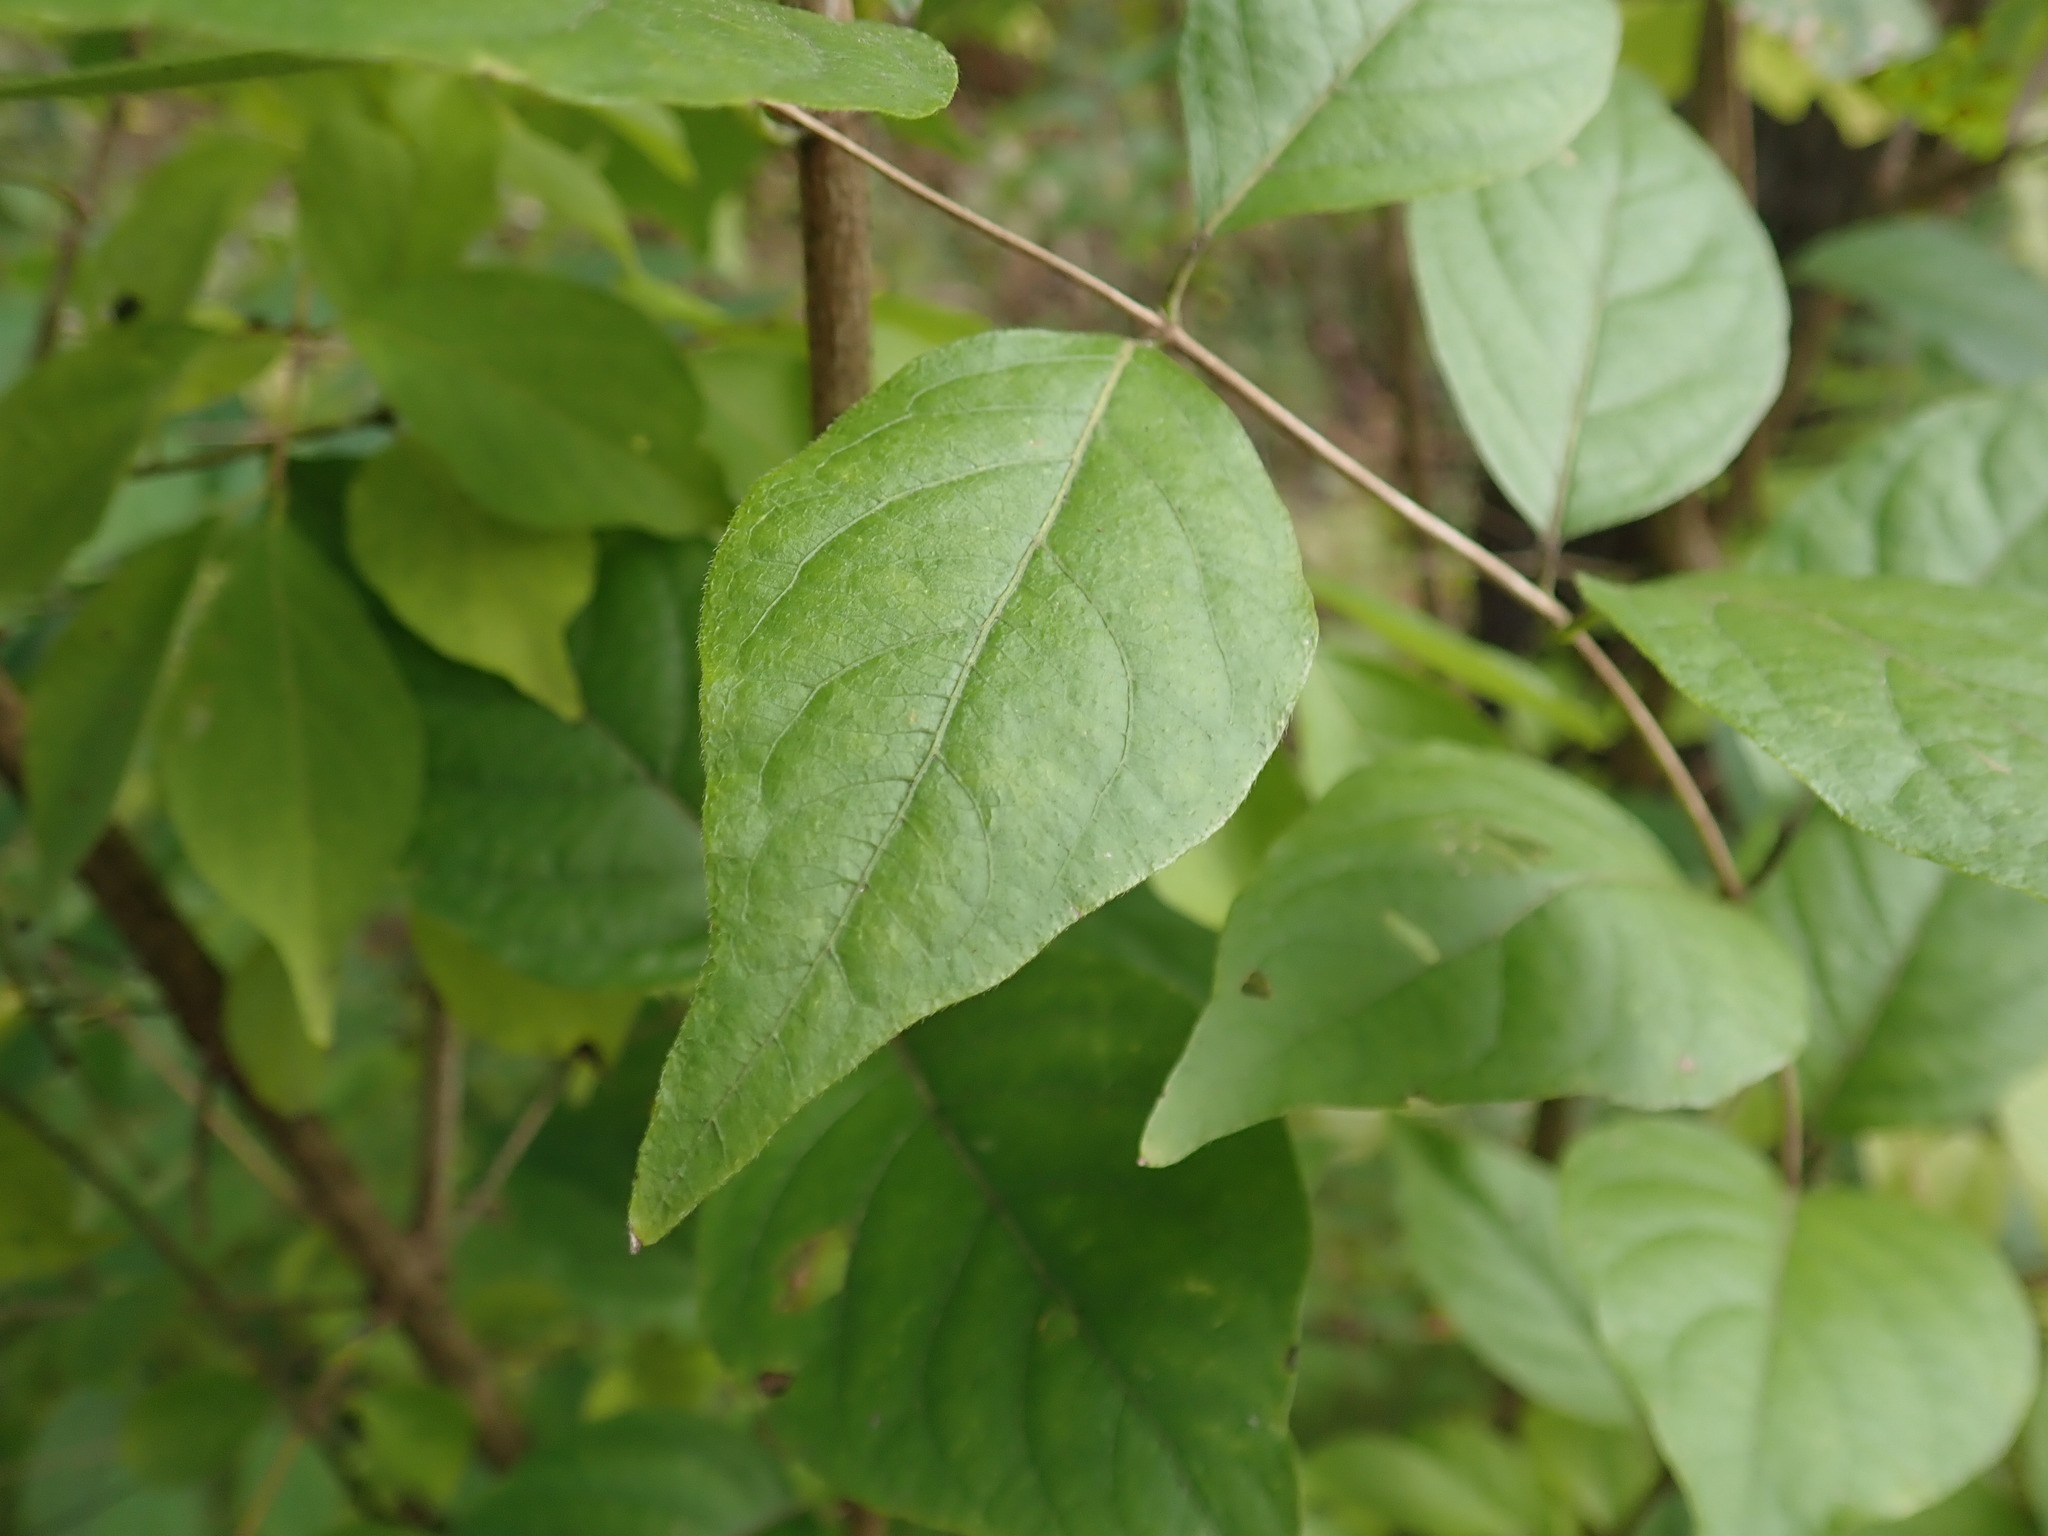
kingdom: Plantae
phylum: Tracheophyta
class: Magnoliopsida
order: Dipsacales
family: Caprifoliaceae
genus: Lonicera
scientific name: Lonicera maackii
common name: Amur honeysuckle
